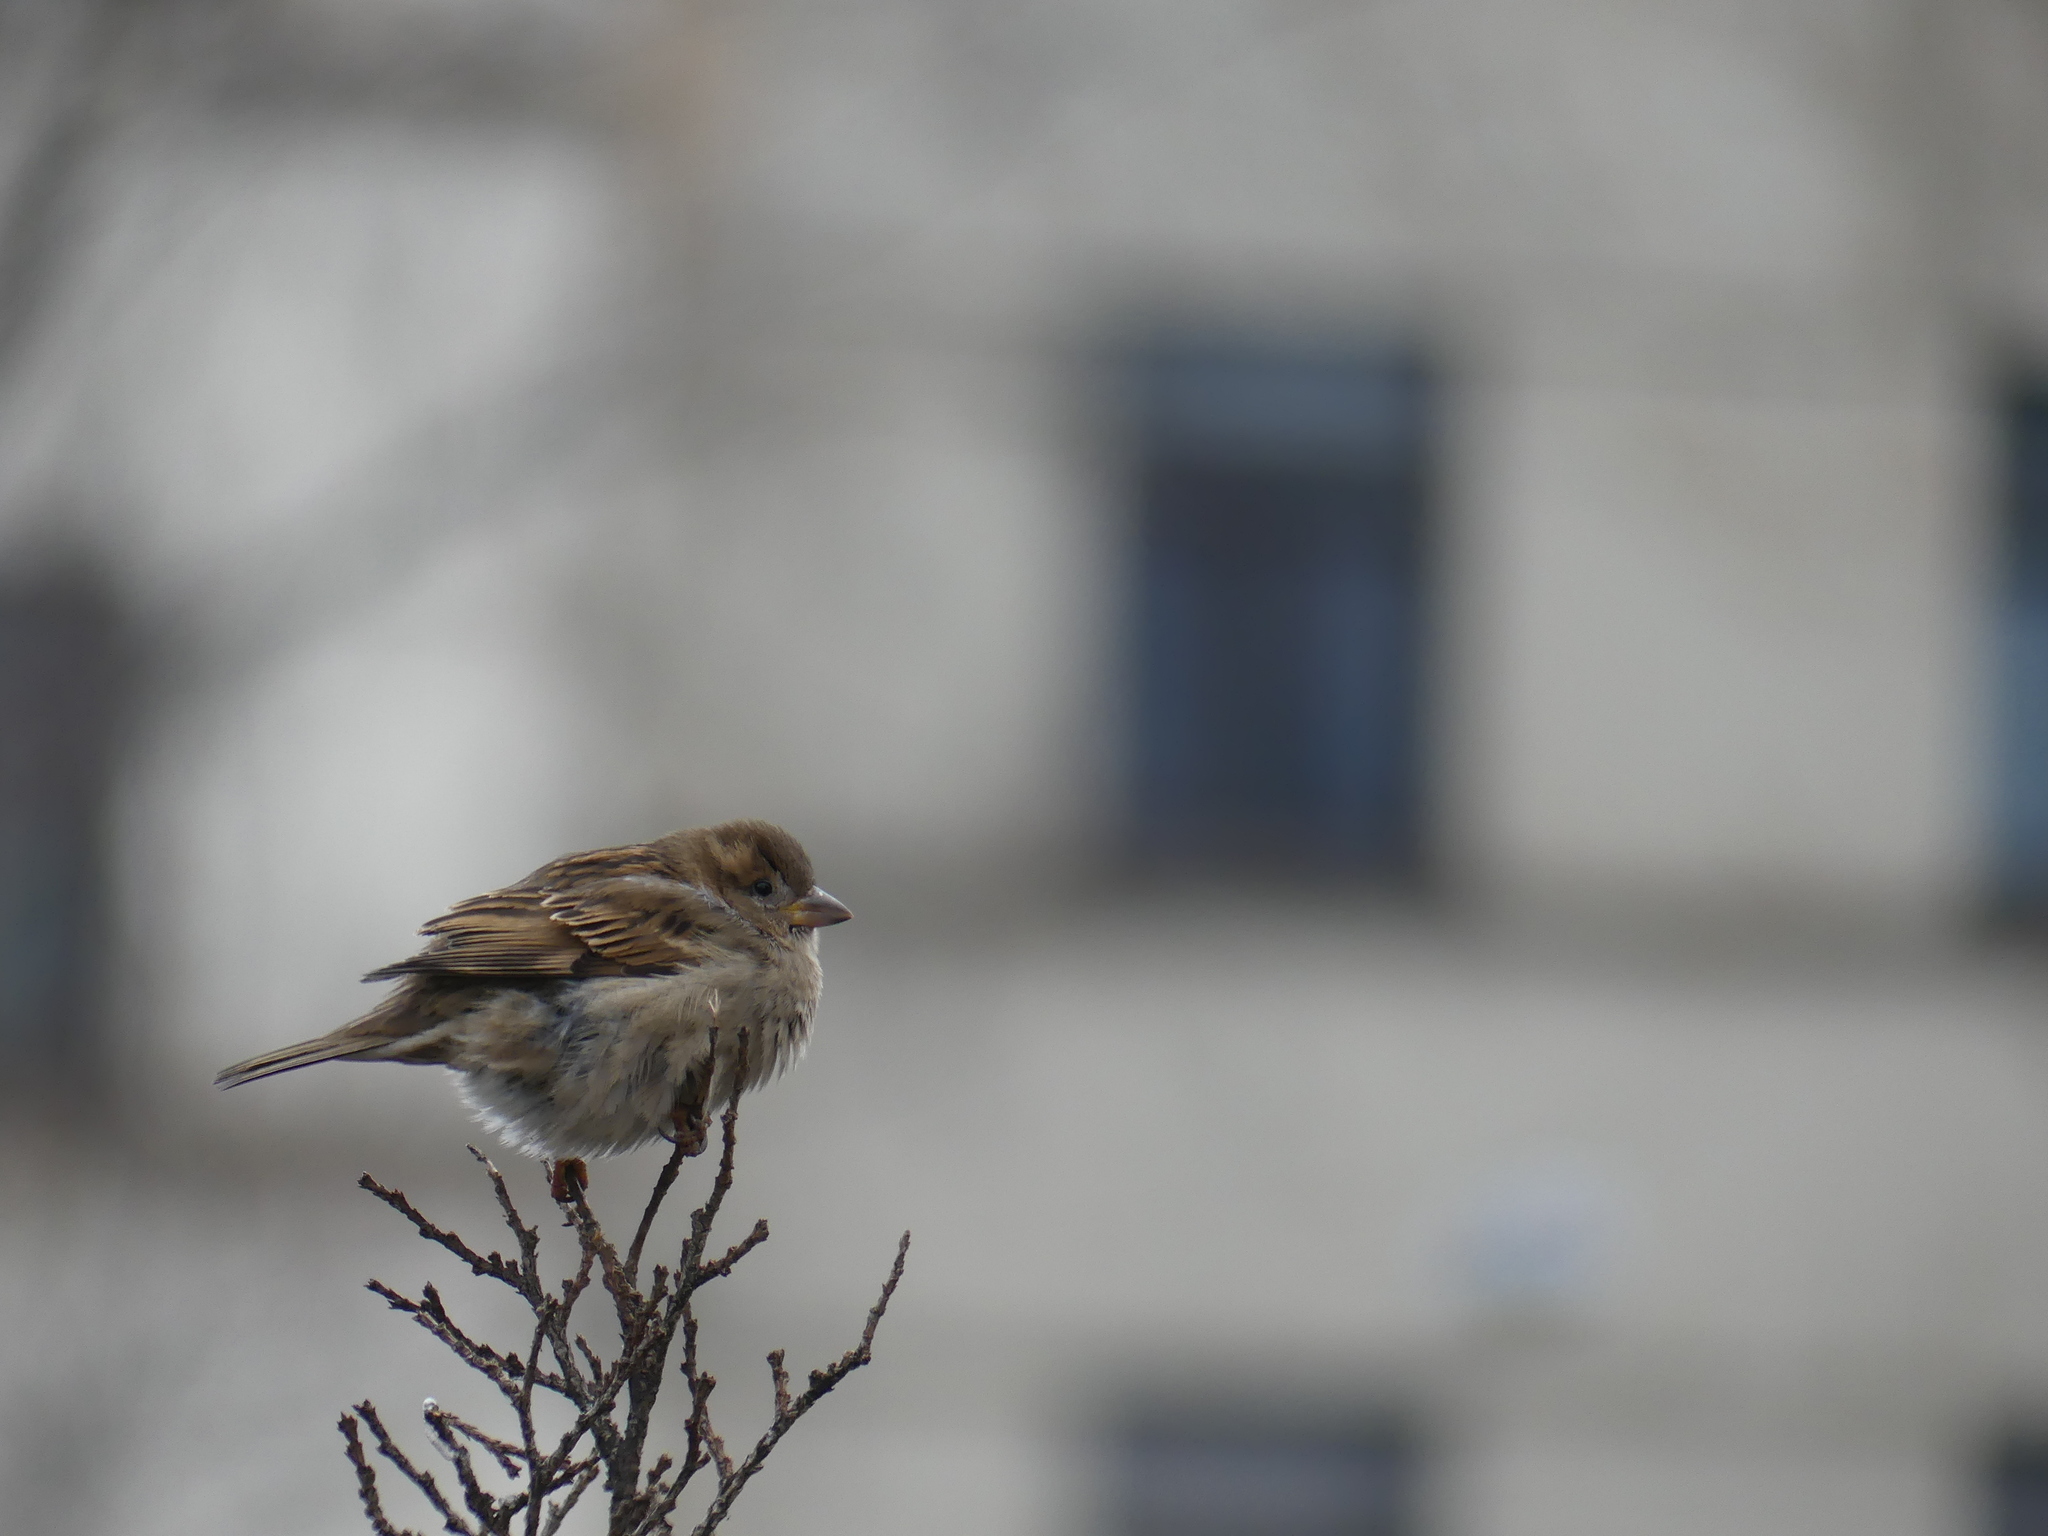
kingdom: Animalia
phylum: Chordata
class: Aves
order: Passeriformes
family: Passeridae
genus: Passer
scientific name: Passer domesticus
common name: House sparrow
